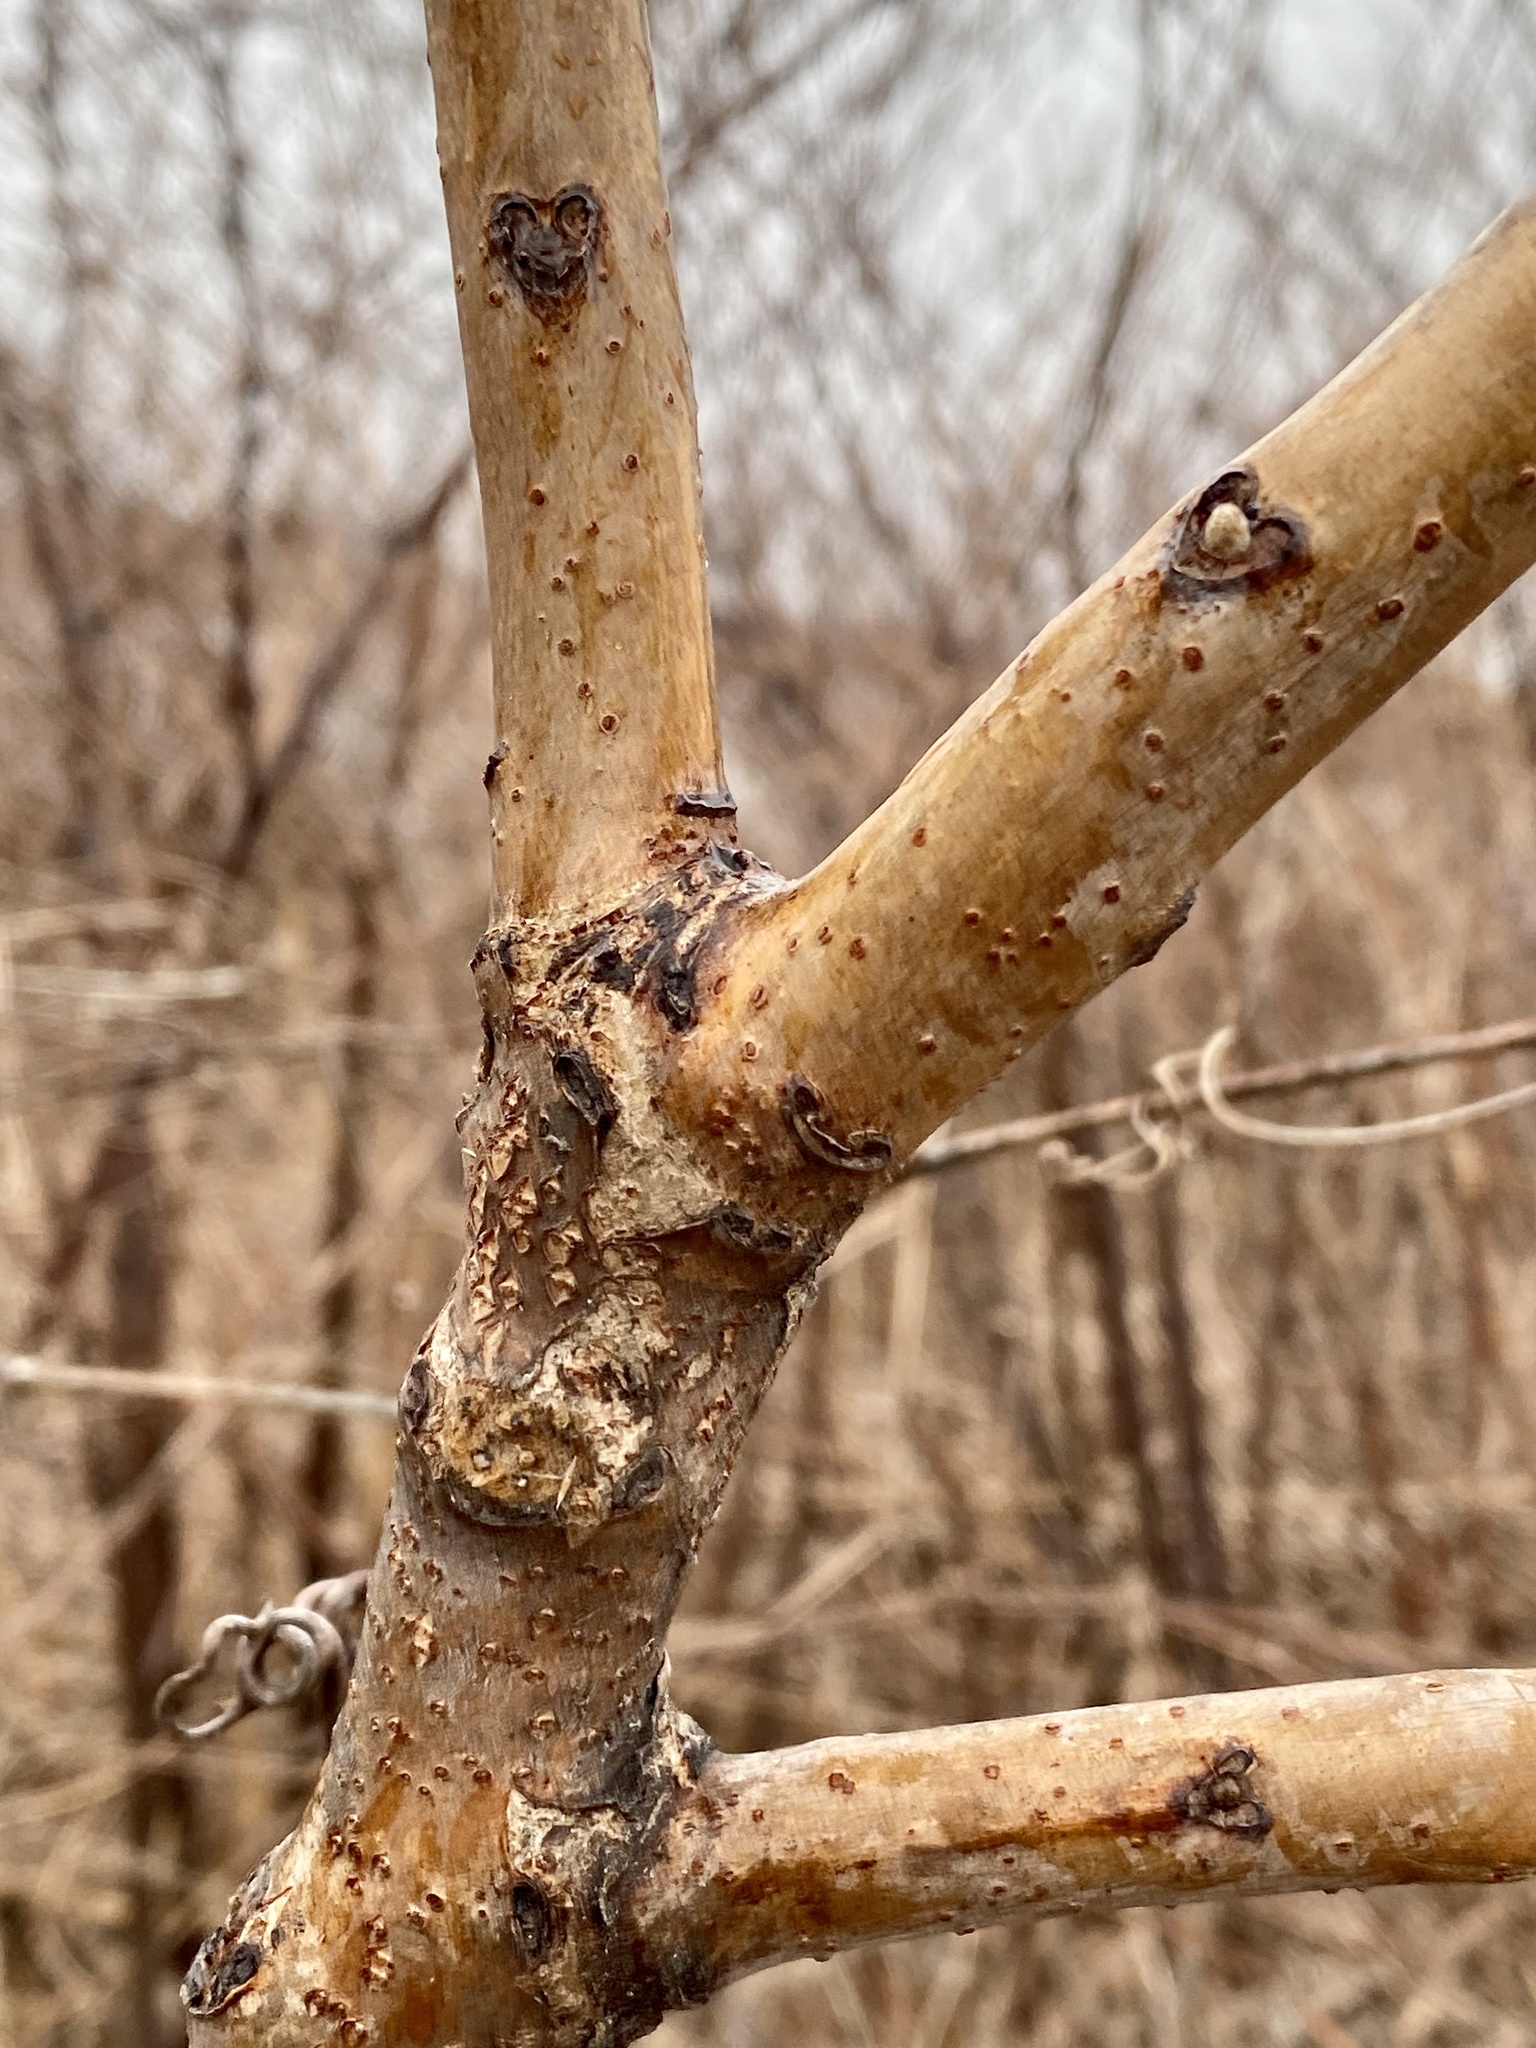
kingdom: Plantae
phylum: Tracheophyta
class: Magnoliopsida
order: Sapindales
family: Anacardiaceae
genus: Rhus
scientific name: Rhus glabra
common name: Scarlet sumac
